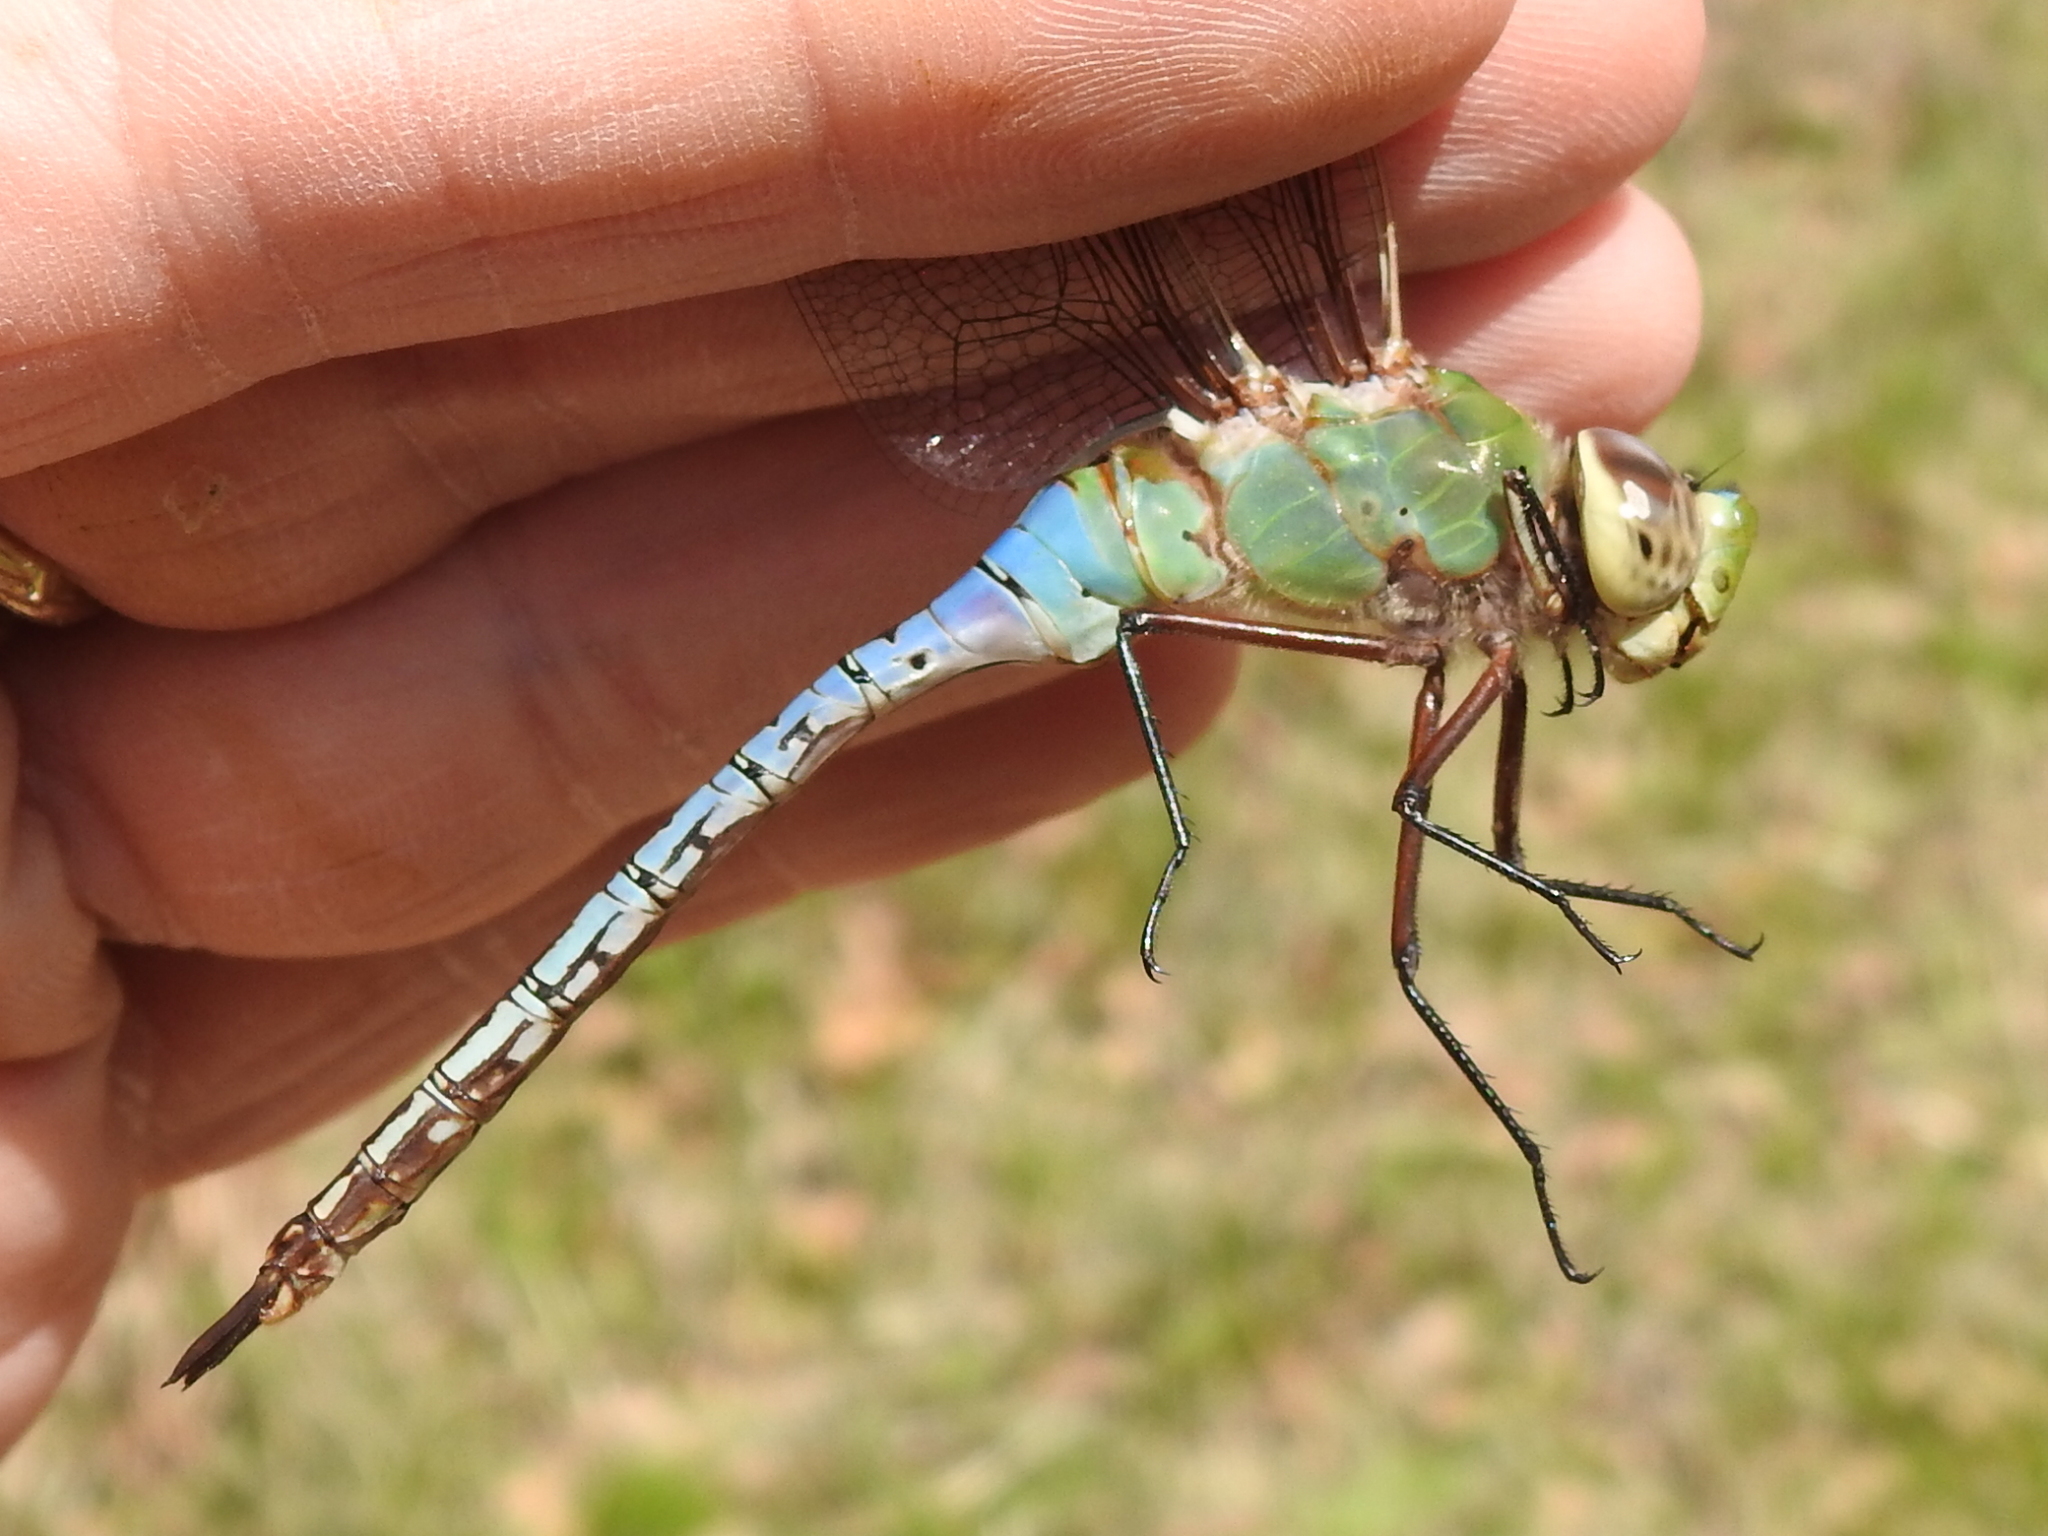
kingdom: Animalia
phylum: Arthropoda
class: Insecta
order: Odonata
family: Aeshnidae
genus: Anax
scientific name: Anax junius
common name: Common green darner
